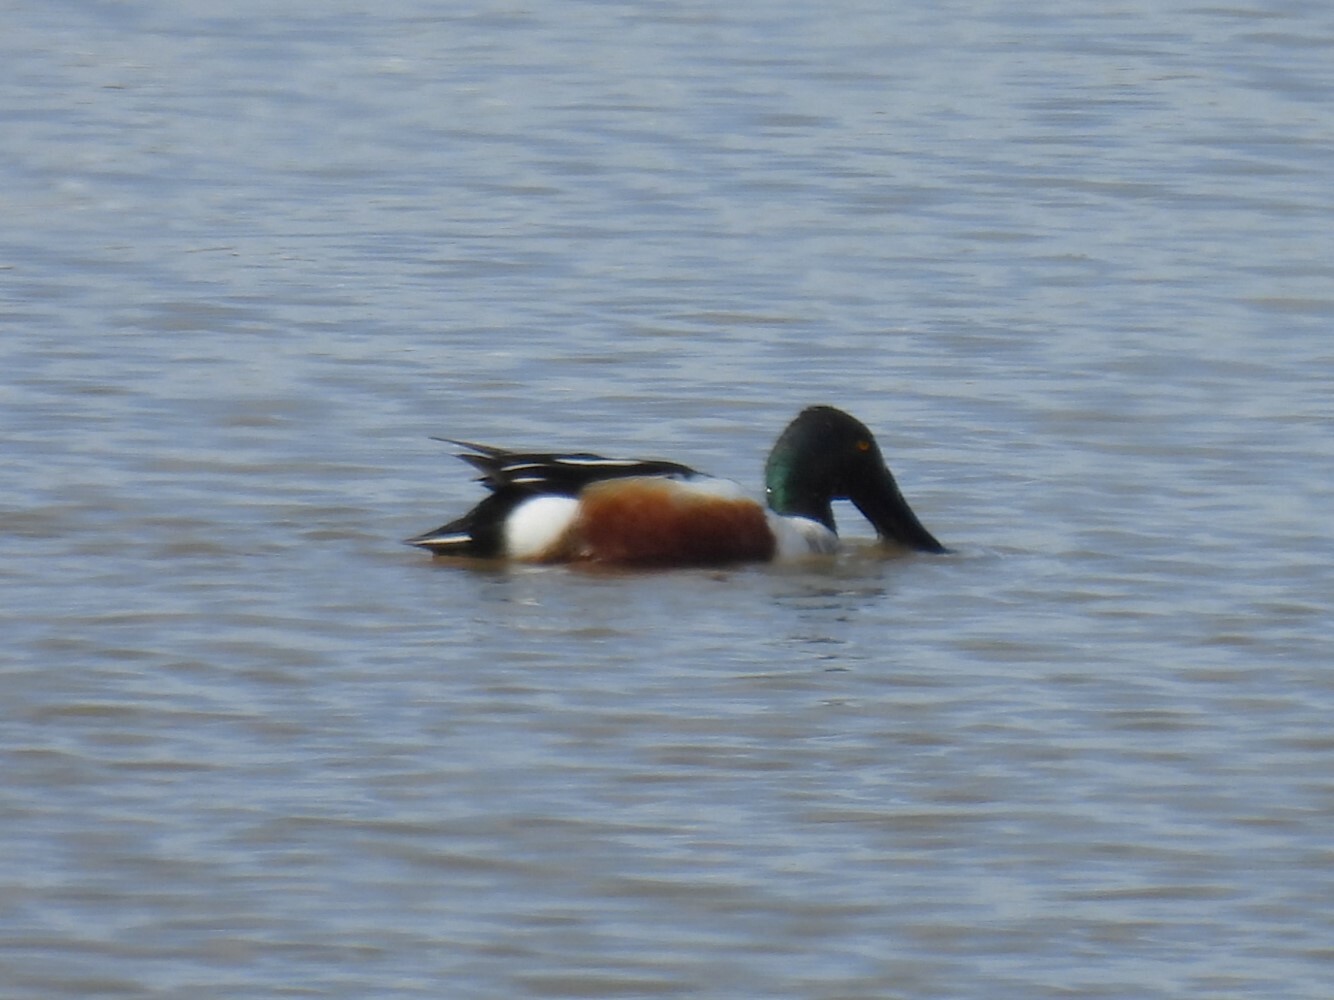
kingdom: Animalia
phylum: Chordata
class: Aves
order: Anseriformes
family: Anatidae
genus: Spatula
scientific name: Spatula clypeata
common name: Northern shoveler
